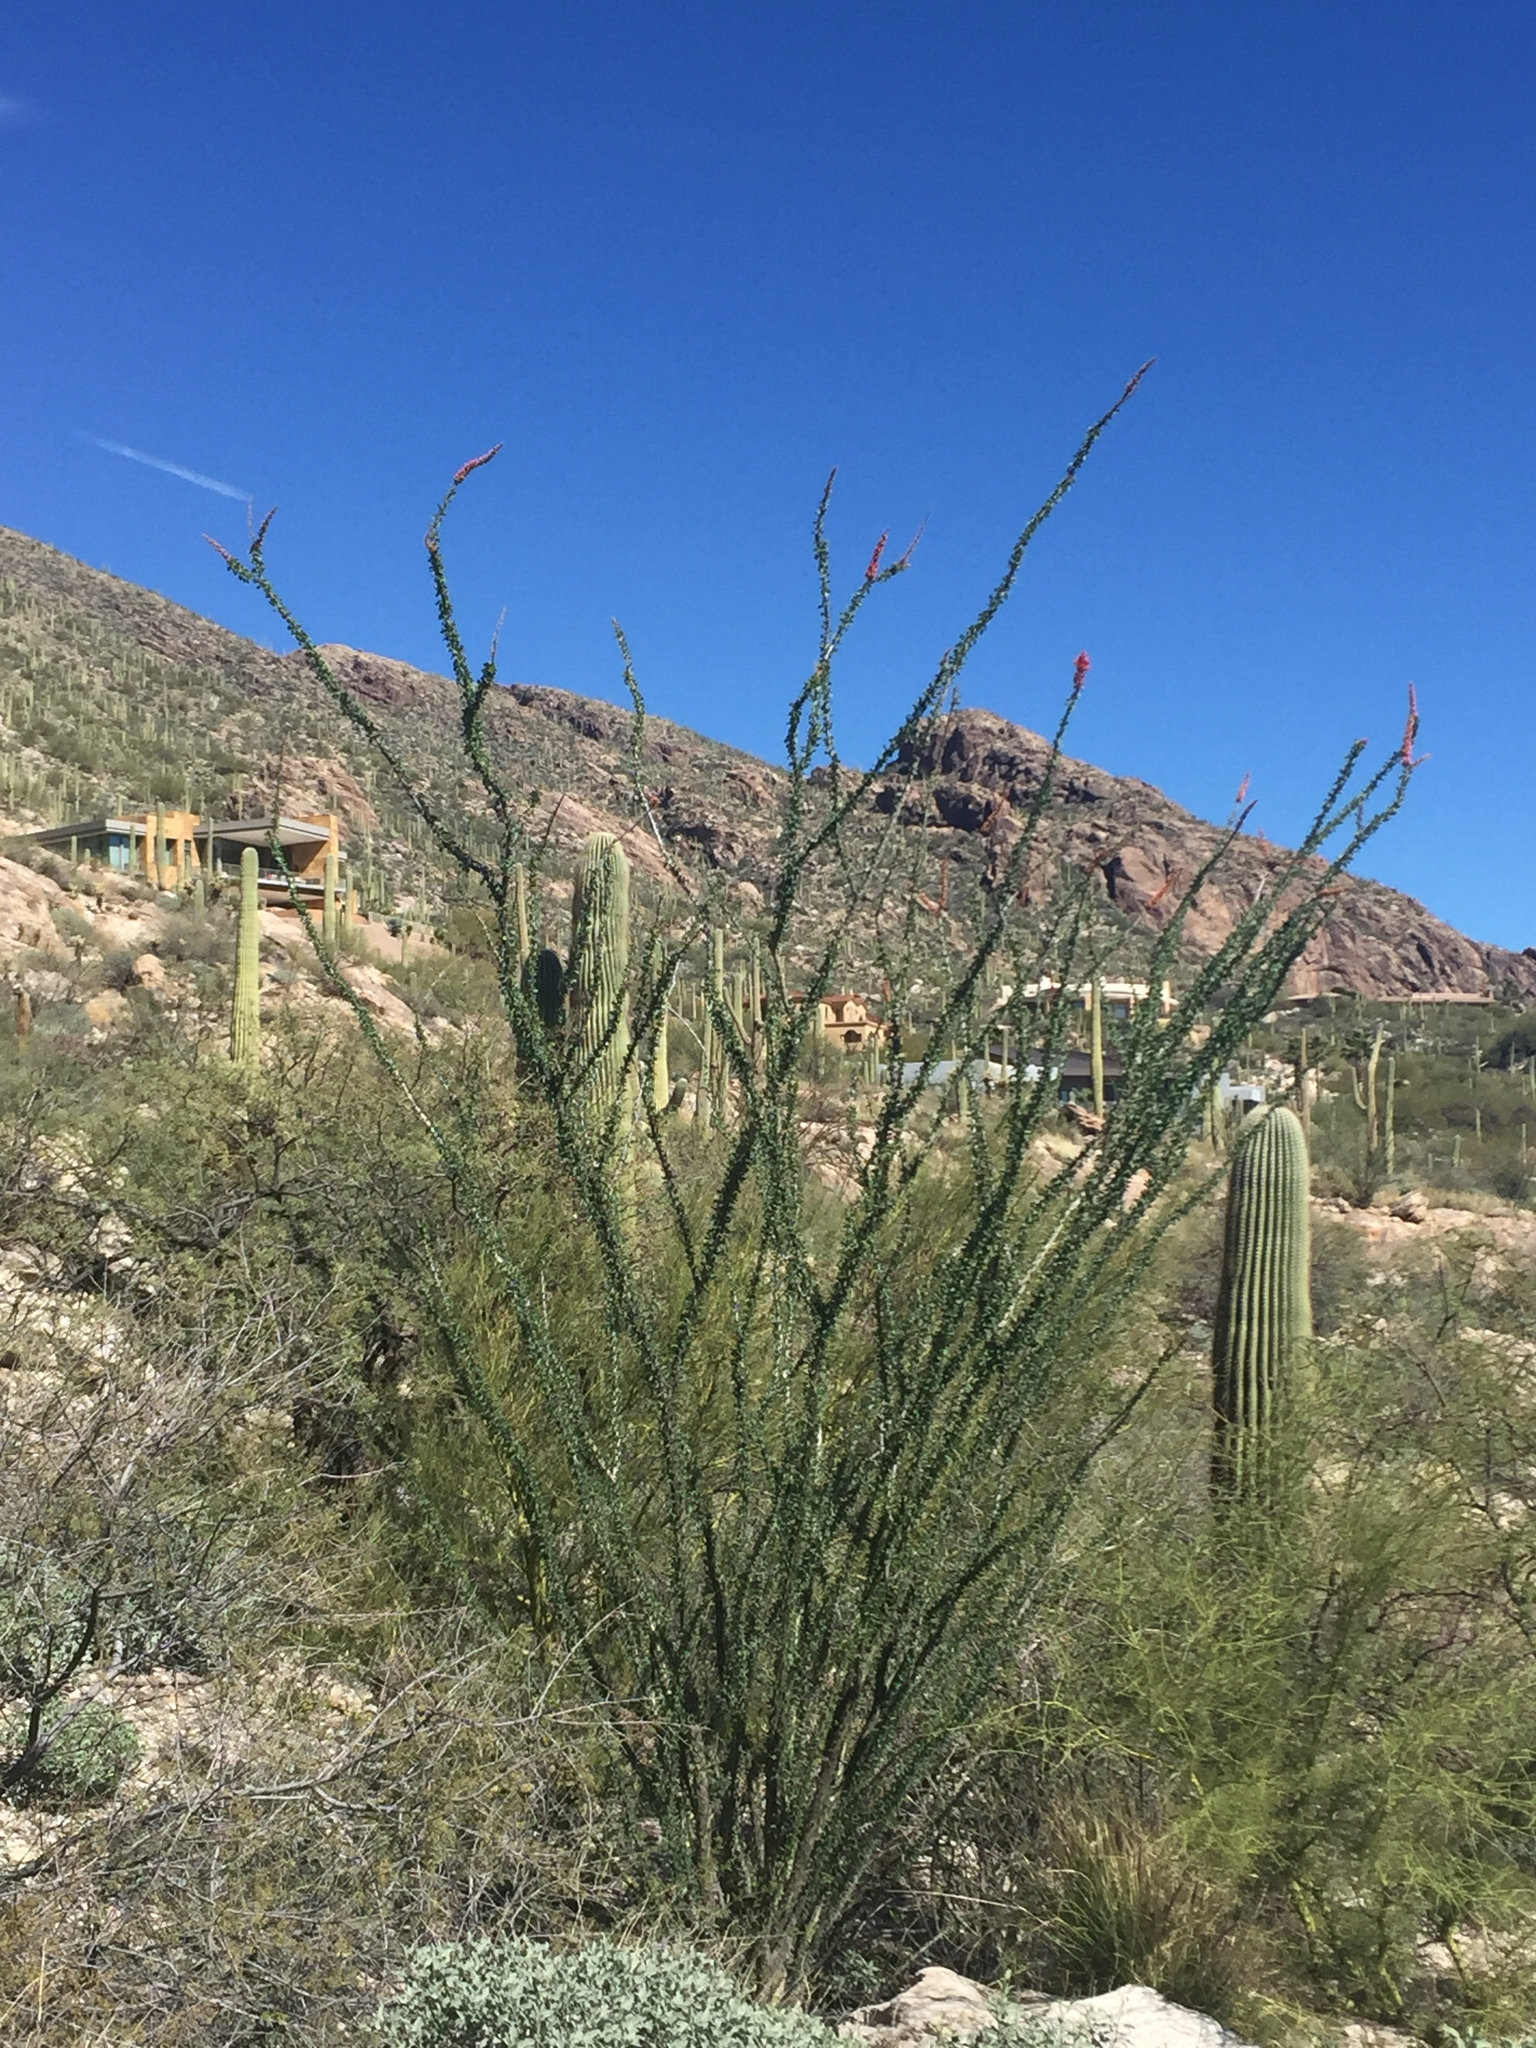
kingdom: Plantae
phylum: Tracheophyta
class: Magnoliopsida
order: Ericales
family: Fouquieriaceae
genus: Fouquieria
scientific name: Fouquieria splendens
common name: Vine-cactus
